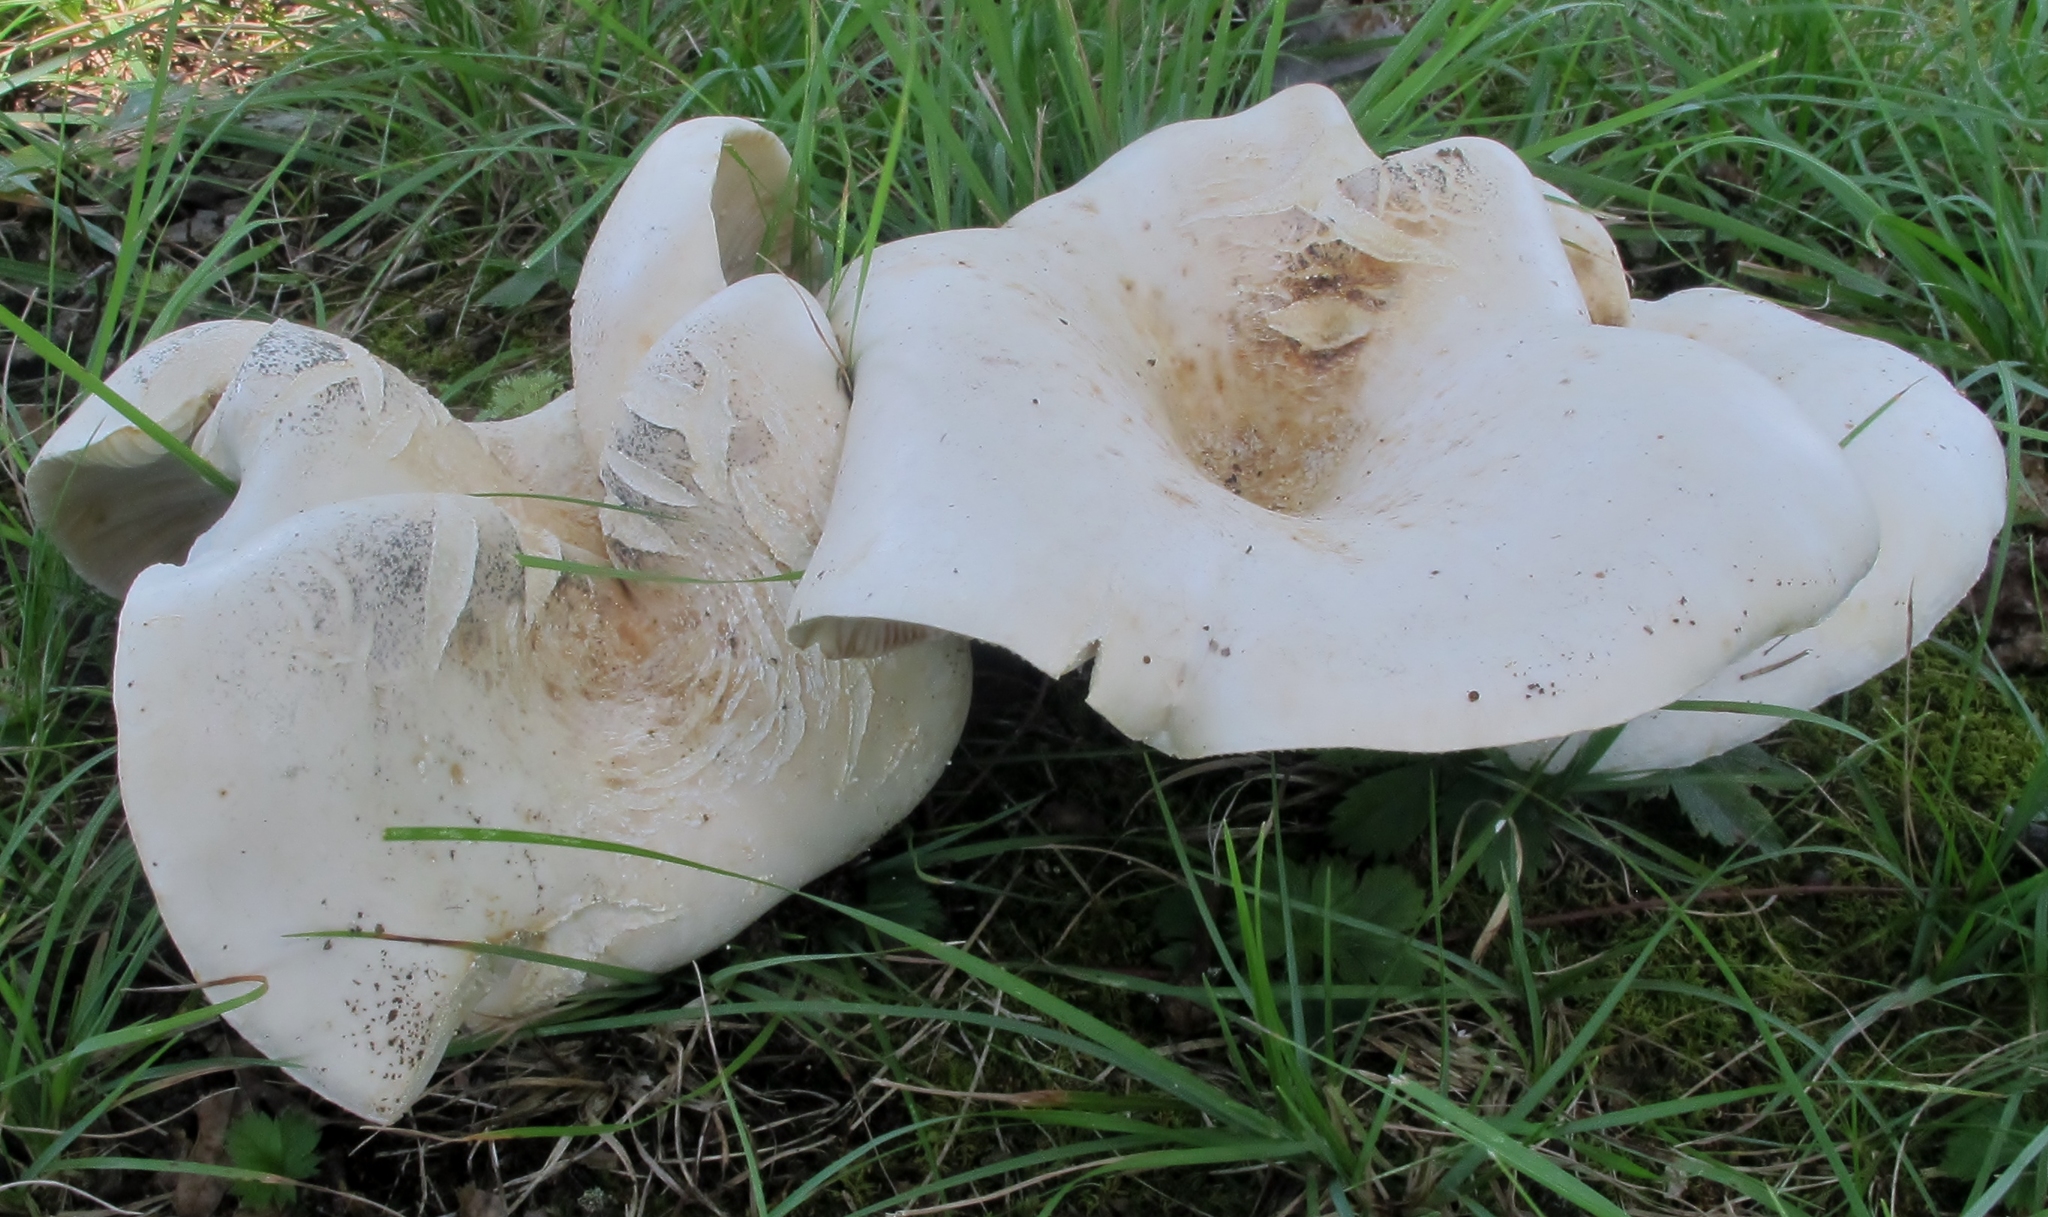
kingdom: Fungi
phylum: Basidiomycota
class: Agaricomycetes
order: Russulales
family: Russulaceae
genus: Lactifluus
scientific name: Lactifluus piperatus
